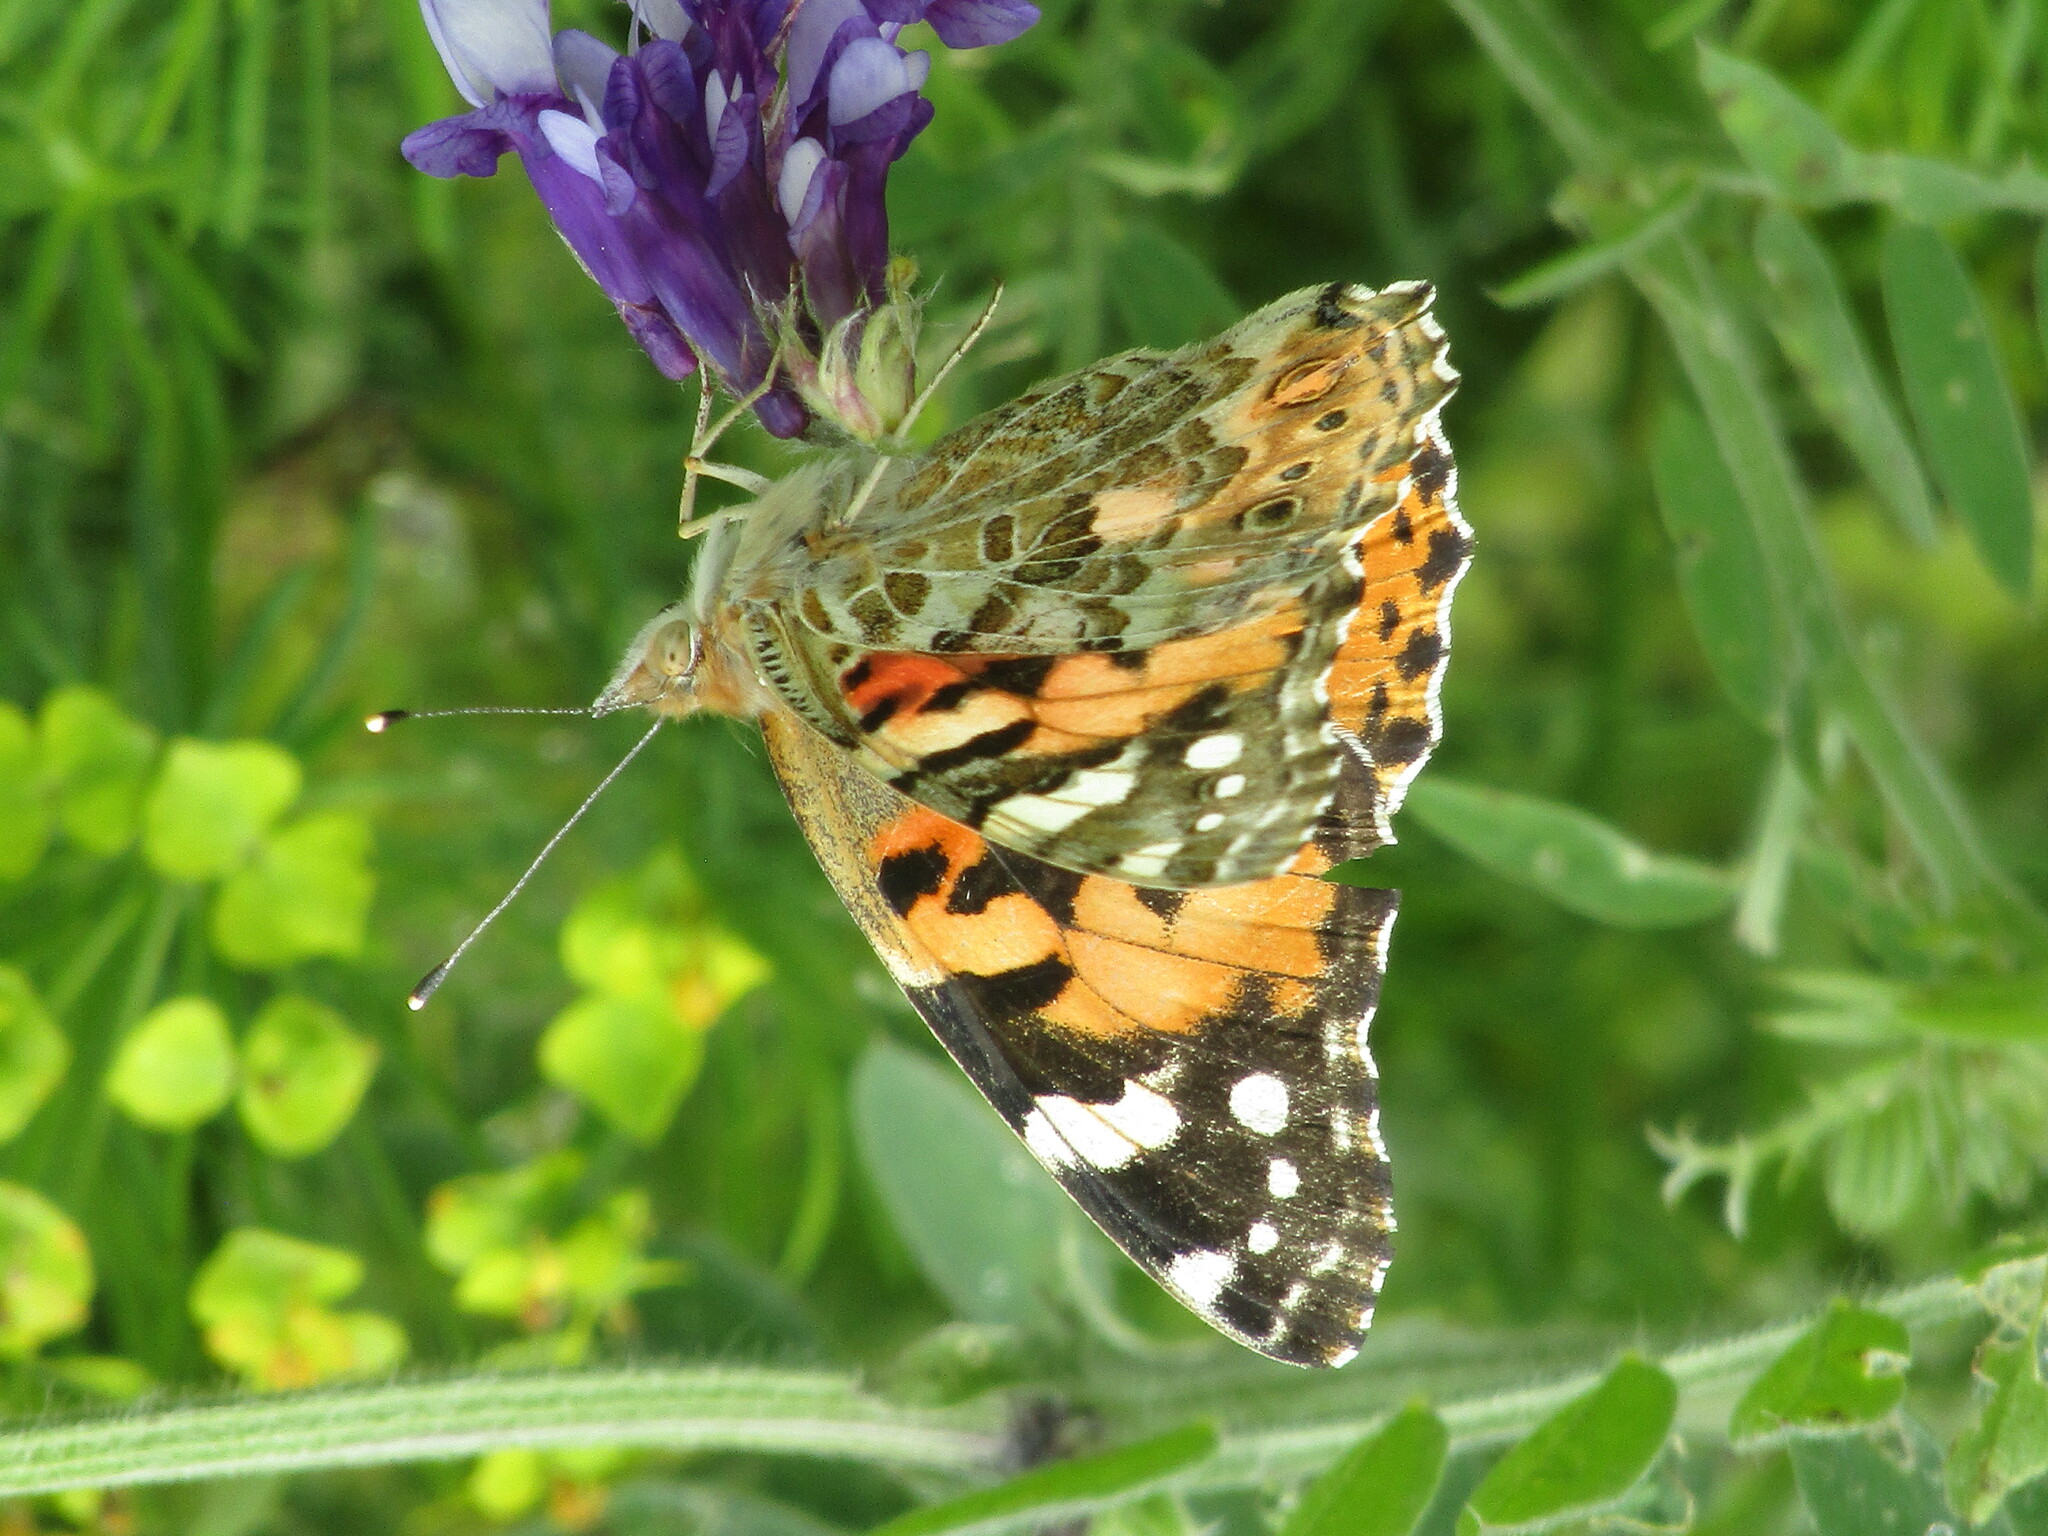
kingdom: Animalia
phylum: Arthropoda
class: Insecta
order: Lepidoptera
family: Nymphalidae
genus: Vanessa
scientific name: Vanessa cardui
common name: Painted lady
